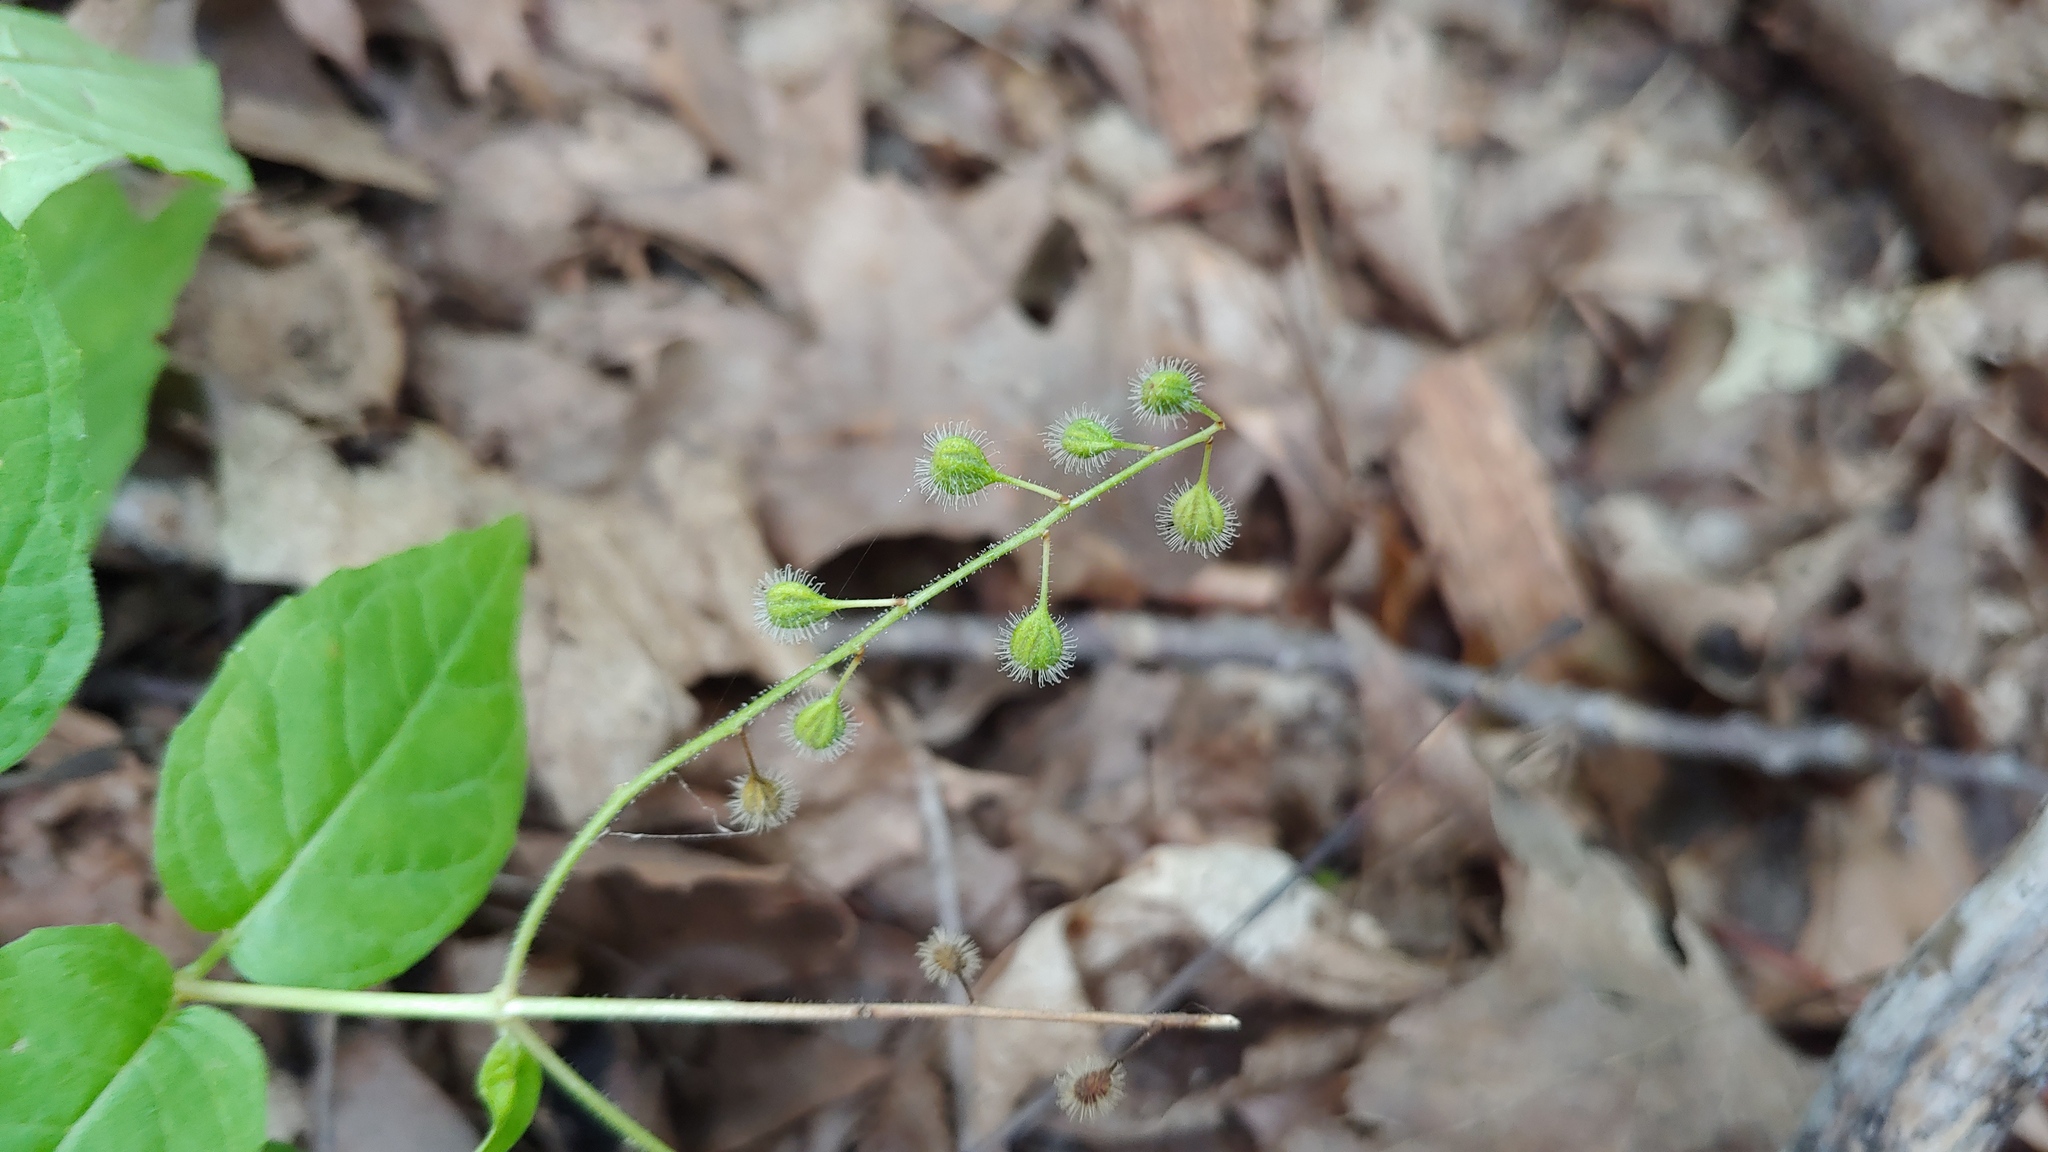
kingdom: Plantae
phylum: Tracheophyta
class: Magnoliopsida
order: Myrtales
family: Onagraceae
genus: Circaea
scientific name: Circaea canadensis
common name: Broad-leaved enchanter's nightshade
